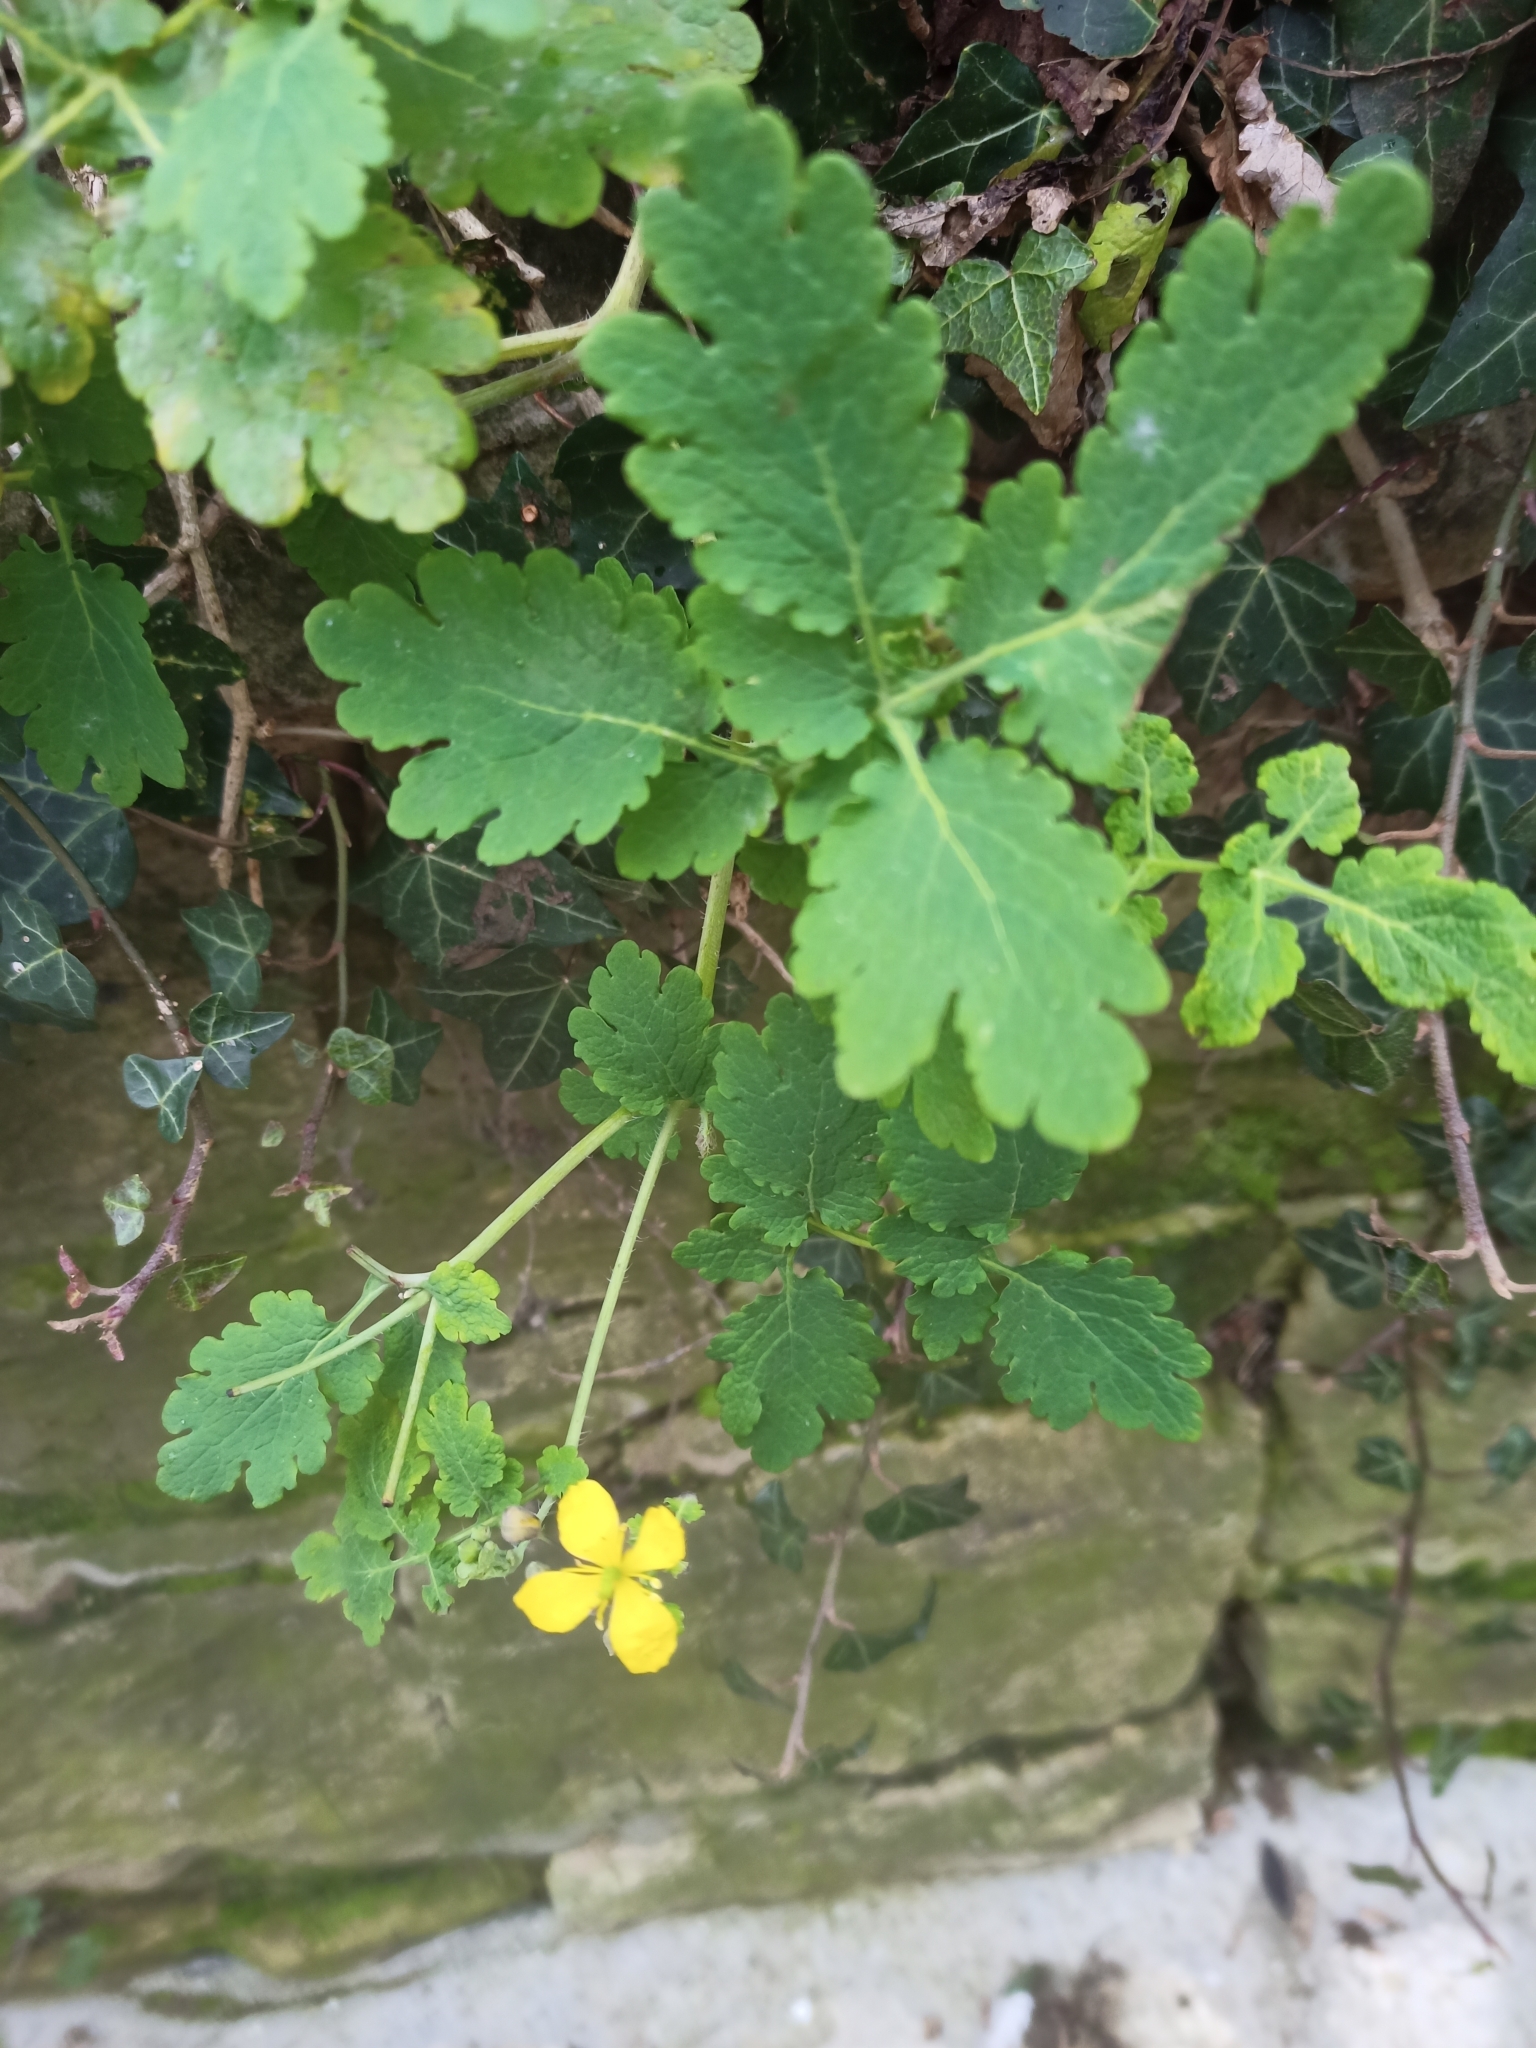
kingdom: Plantae
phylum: Tracheophyta
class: Magnoliopsida
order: Ranunculales
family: Papaveraceae
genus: Chelidonium
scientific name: Chelidonium majus
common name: Greater celandine
